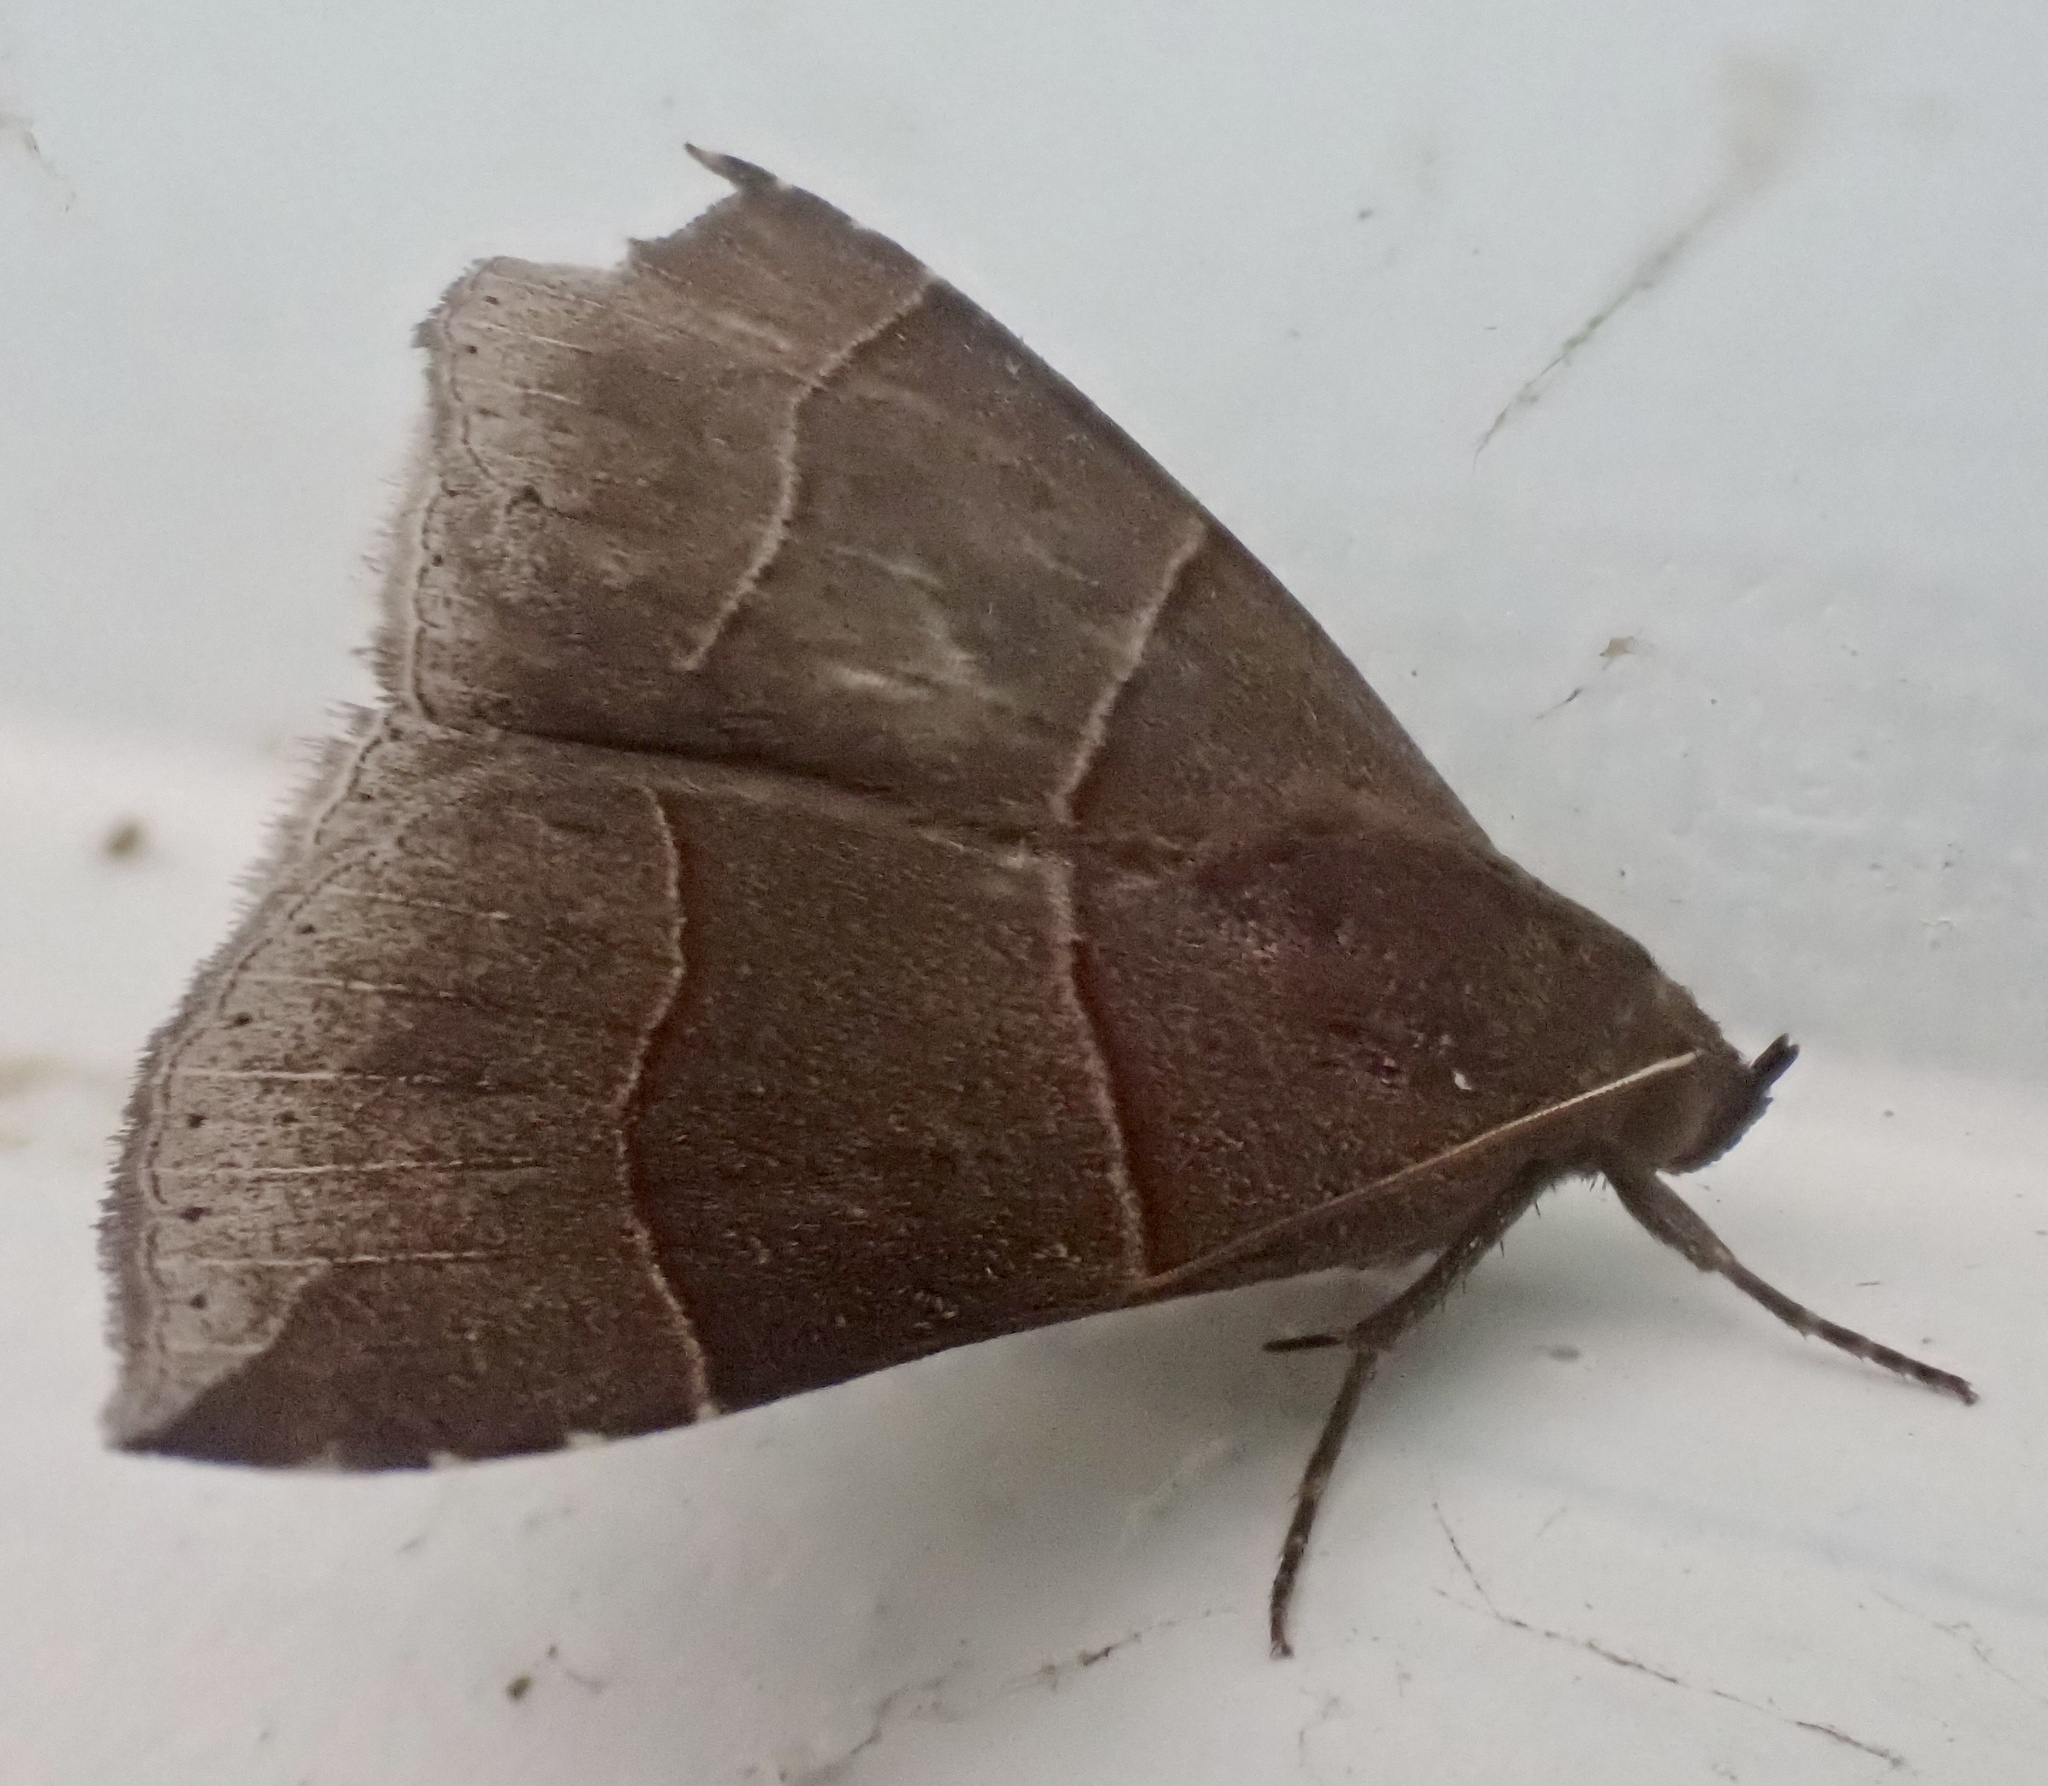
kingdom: Animalia
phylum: Arthropoda
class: Insecta
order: Lepidoptera
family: Erebidae
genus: Parallelia
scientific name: Parallelia bistriaris
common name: Maple looper moth
